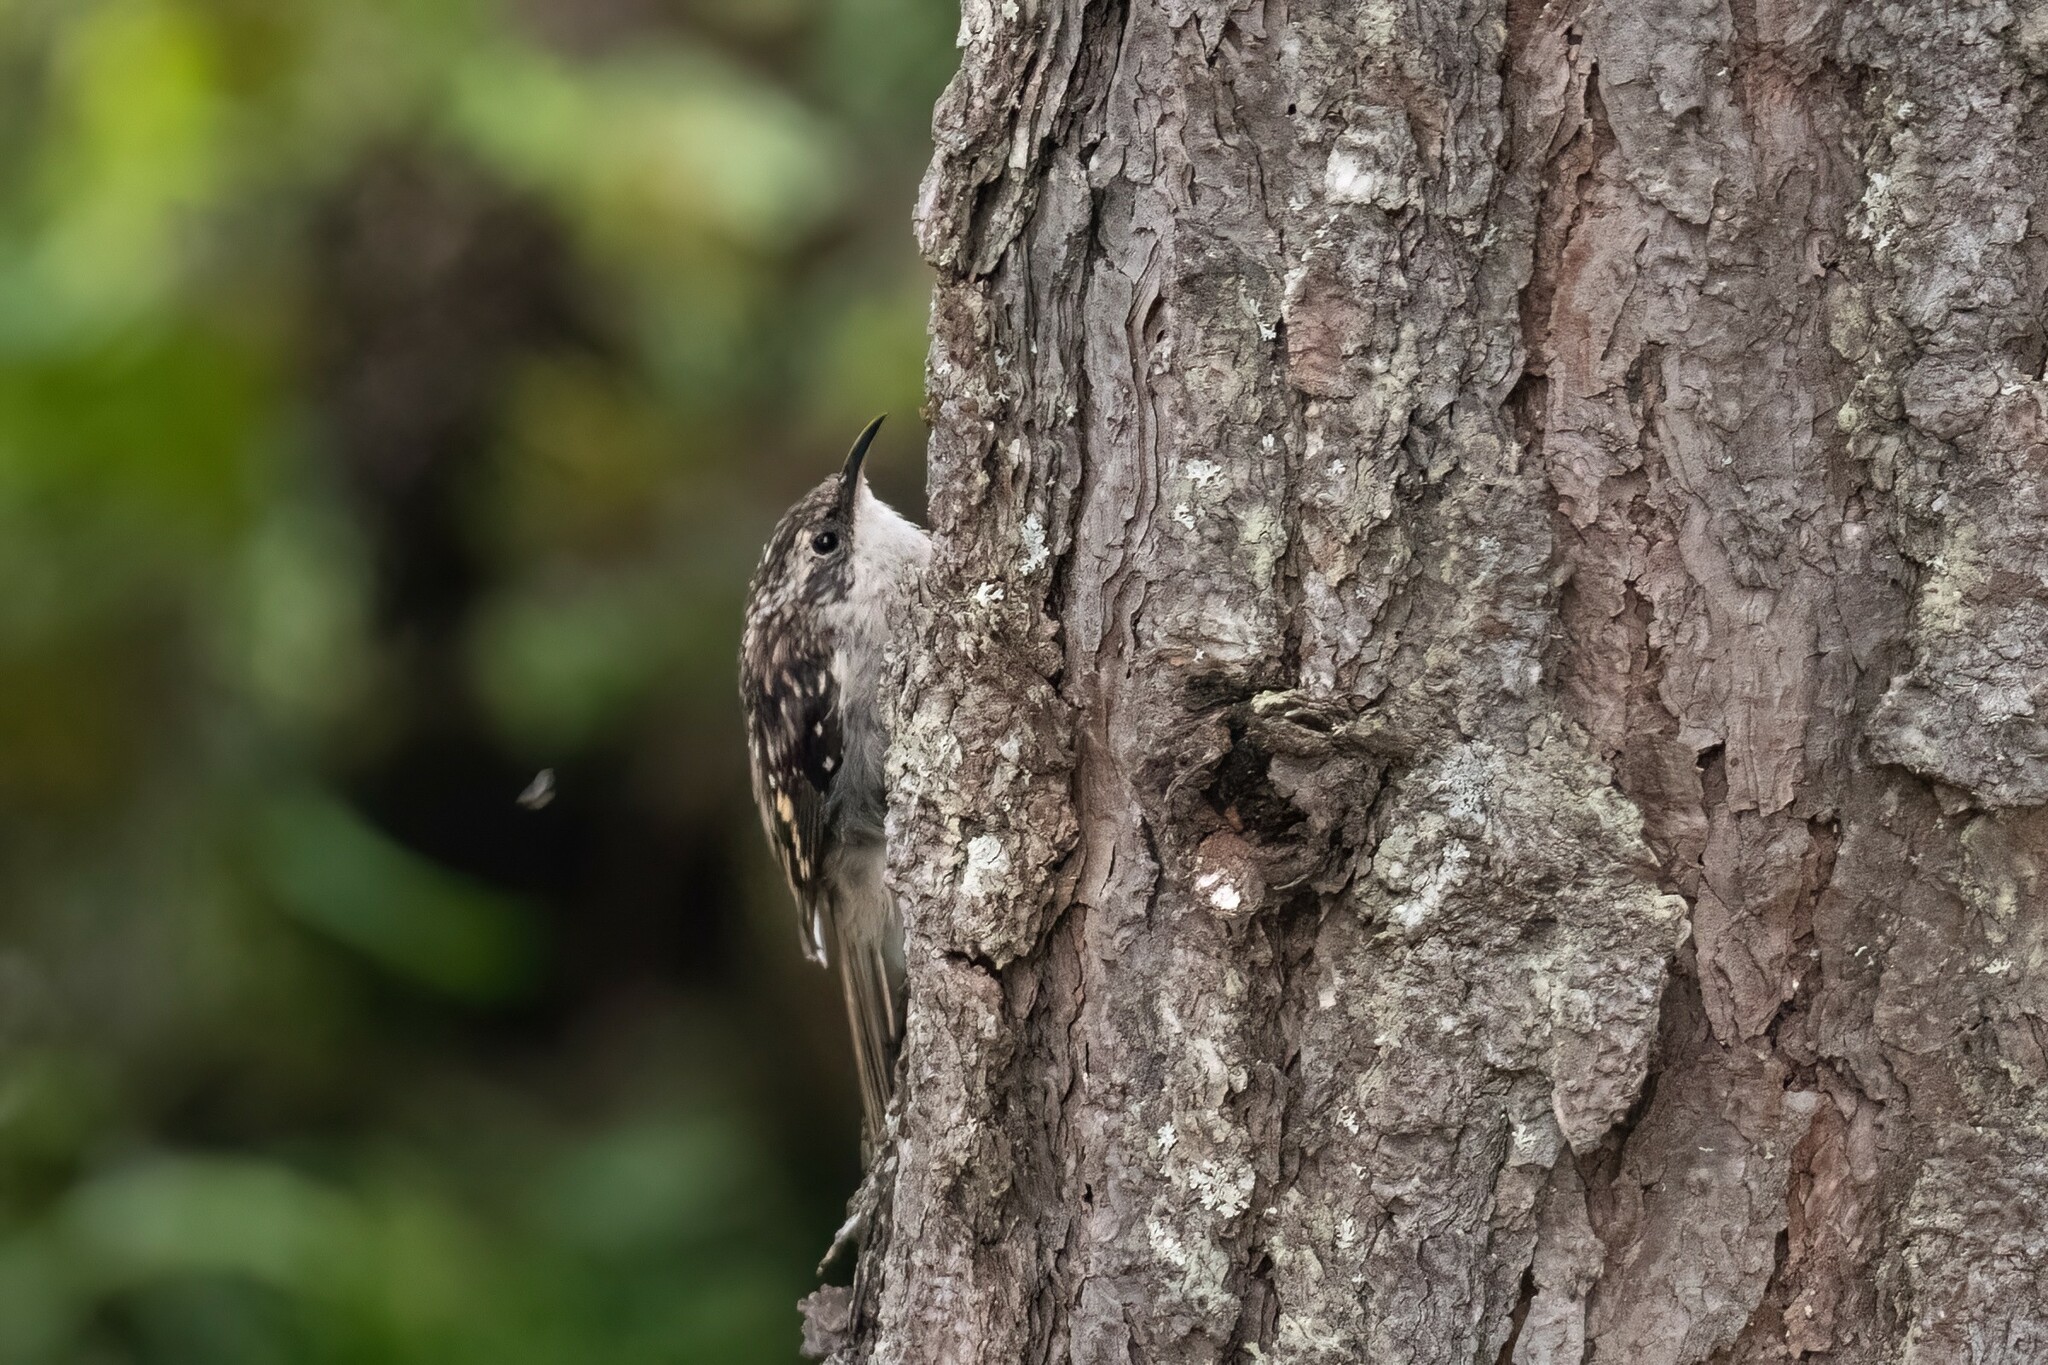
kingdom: Animalia
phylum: Chordata
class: Aves
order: Passeriformes
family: Certhiidae
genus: Certhia
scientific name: Certhia americana
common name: Brown creeper
